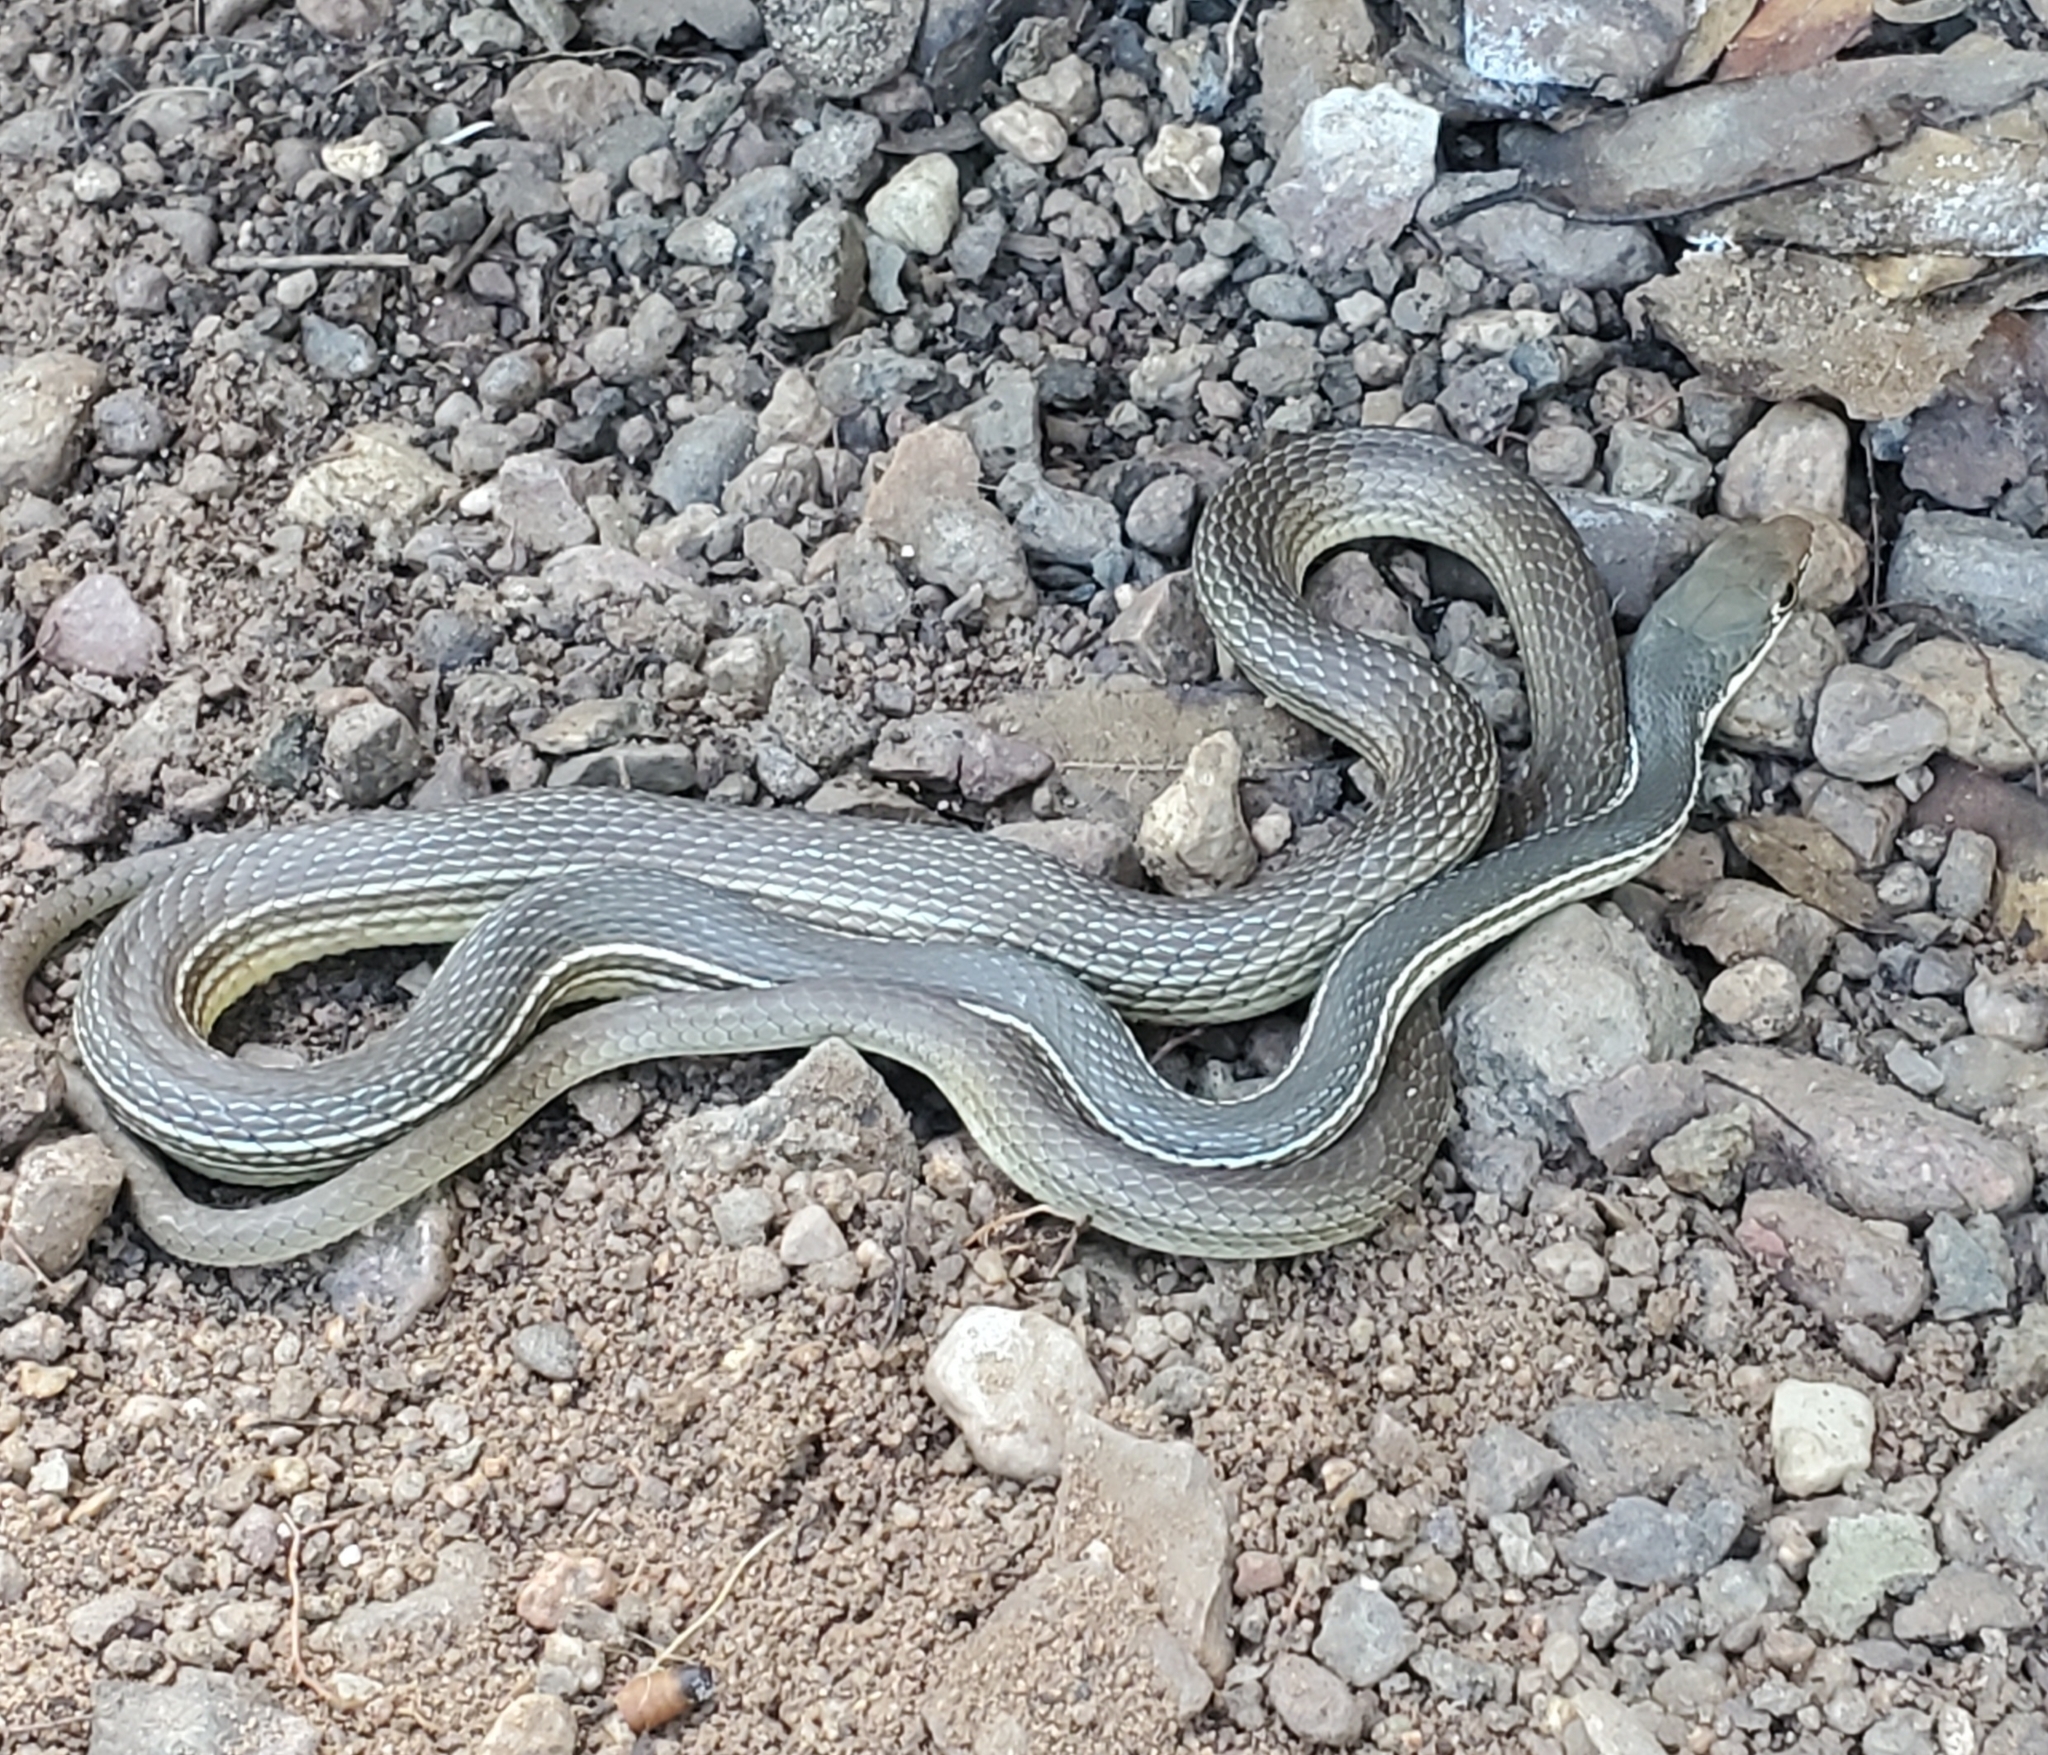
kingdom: Animalia
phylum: Chordata
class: Squamata
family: Colubridae
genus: Masticophis
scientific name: Masticophis bilineatus
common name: Sonoran whipsnake
